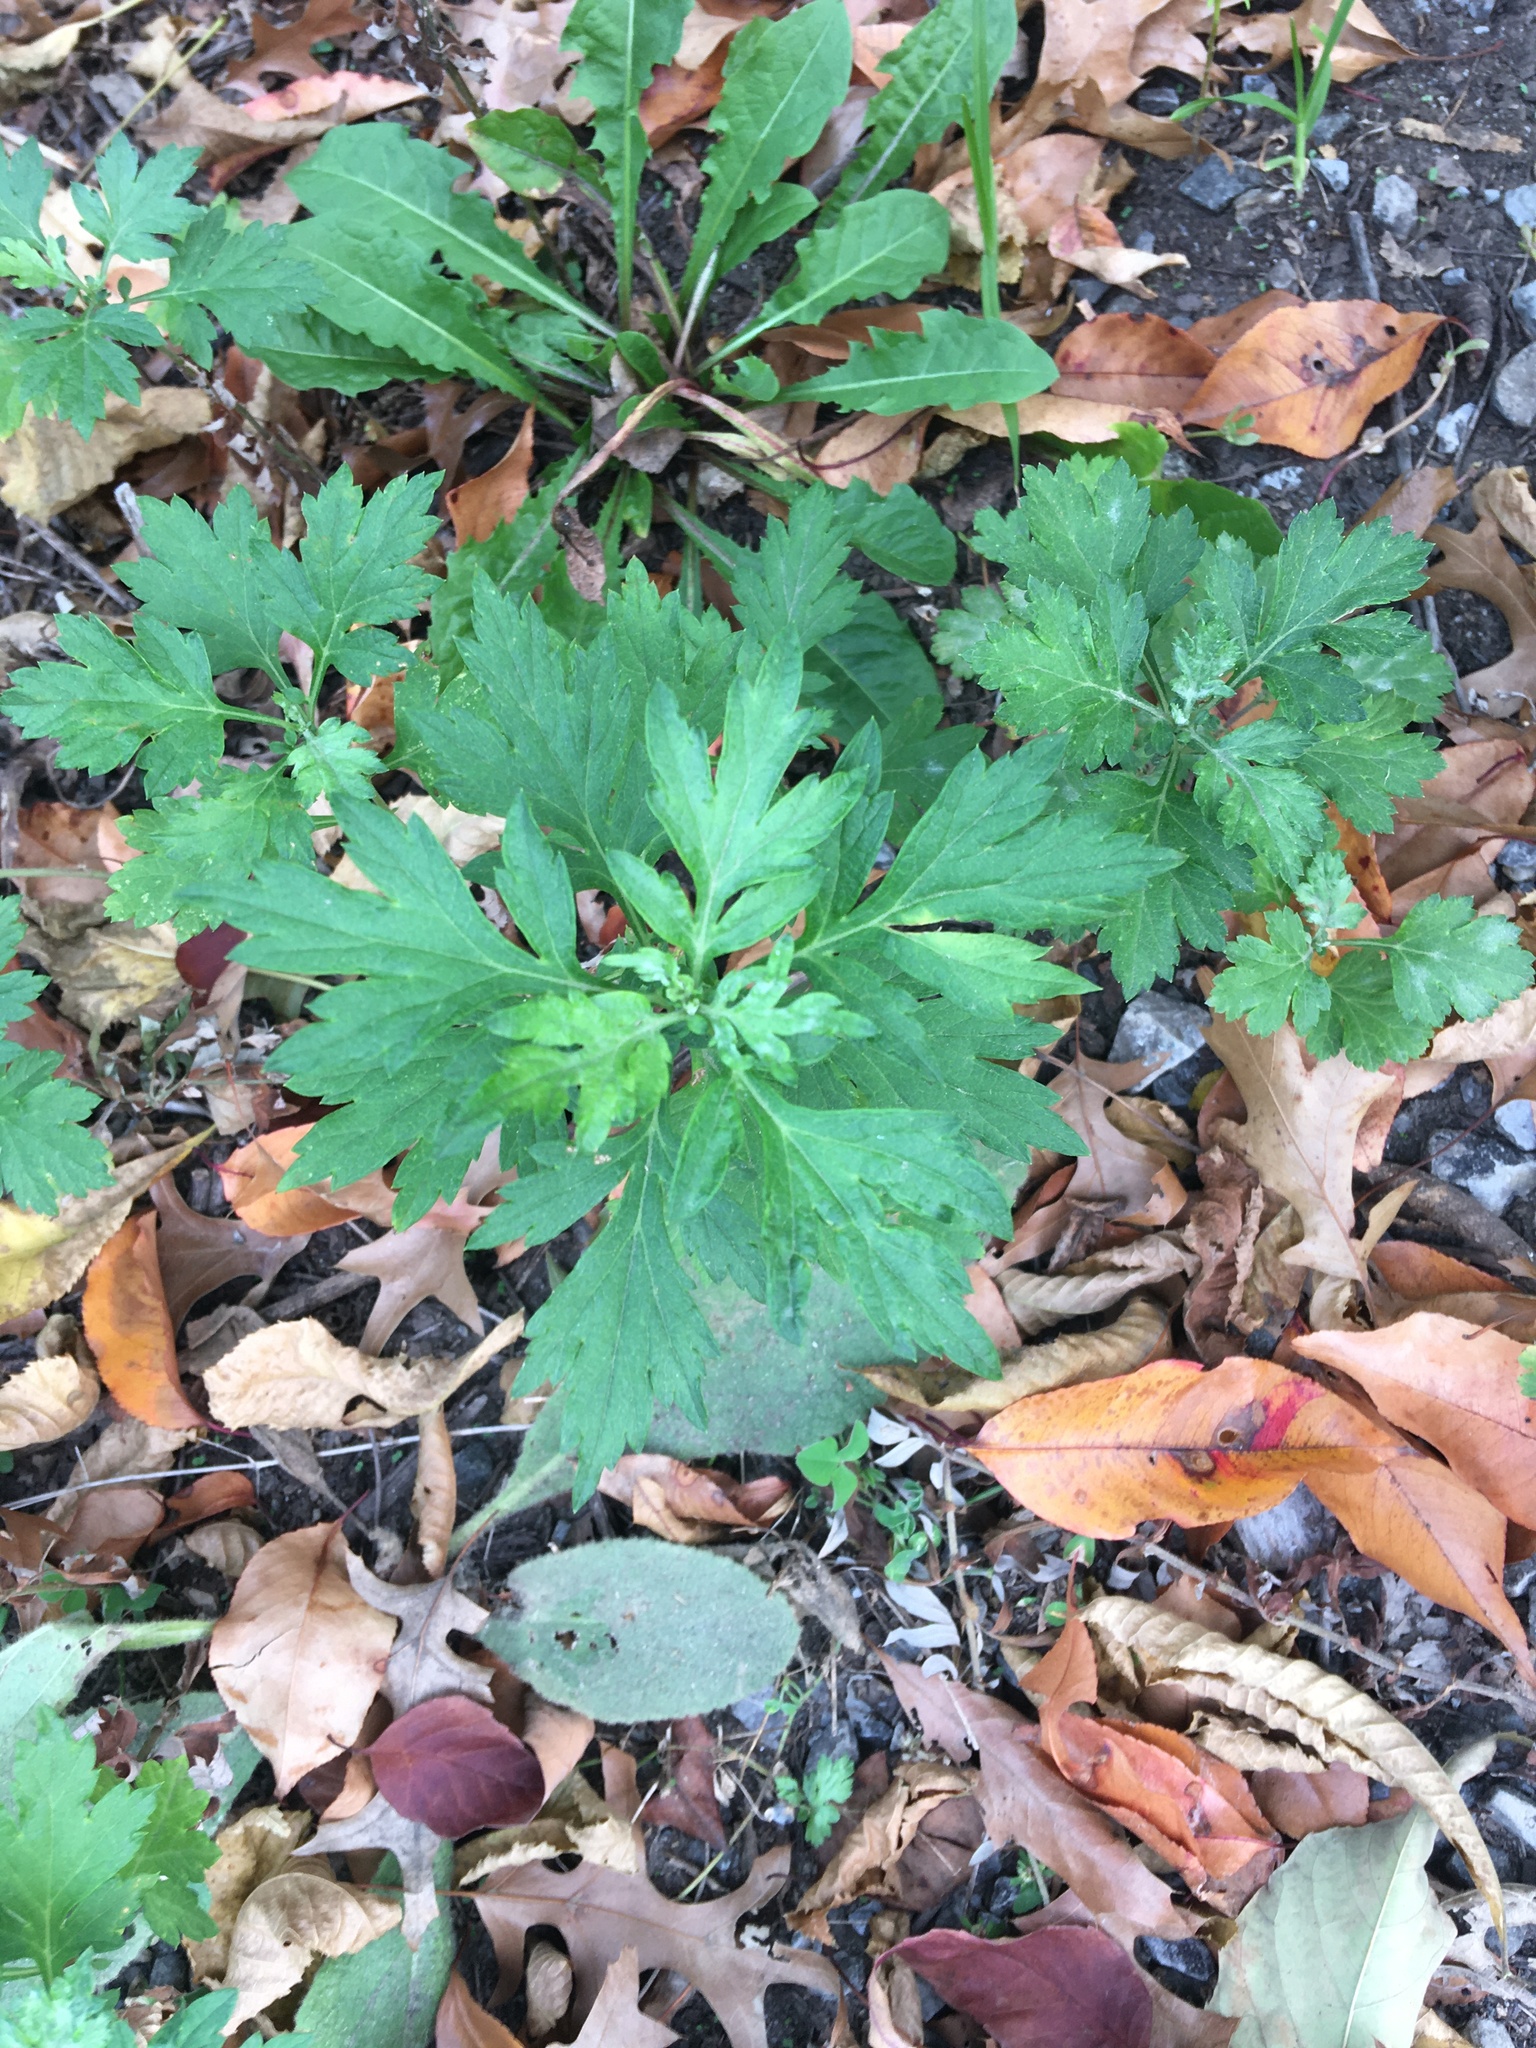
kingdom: Plantae
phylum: Tracheophyta
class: Magnoliopsida
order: Asterales
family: Asteraceae
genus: Artemisia
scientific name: Artemisia vulgaris
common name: Mugwort
